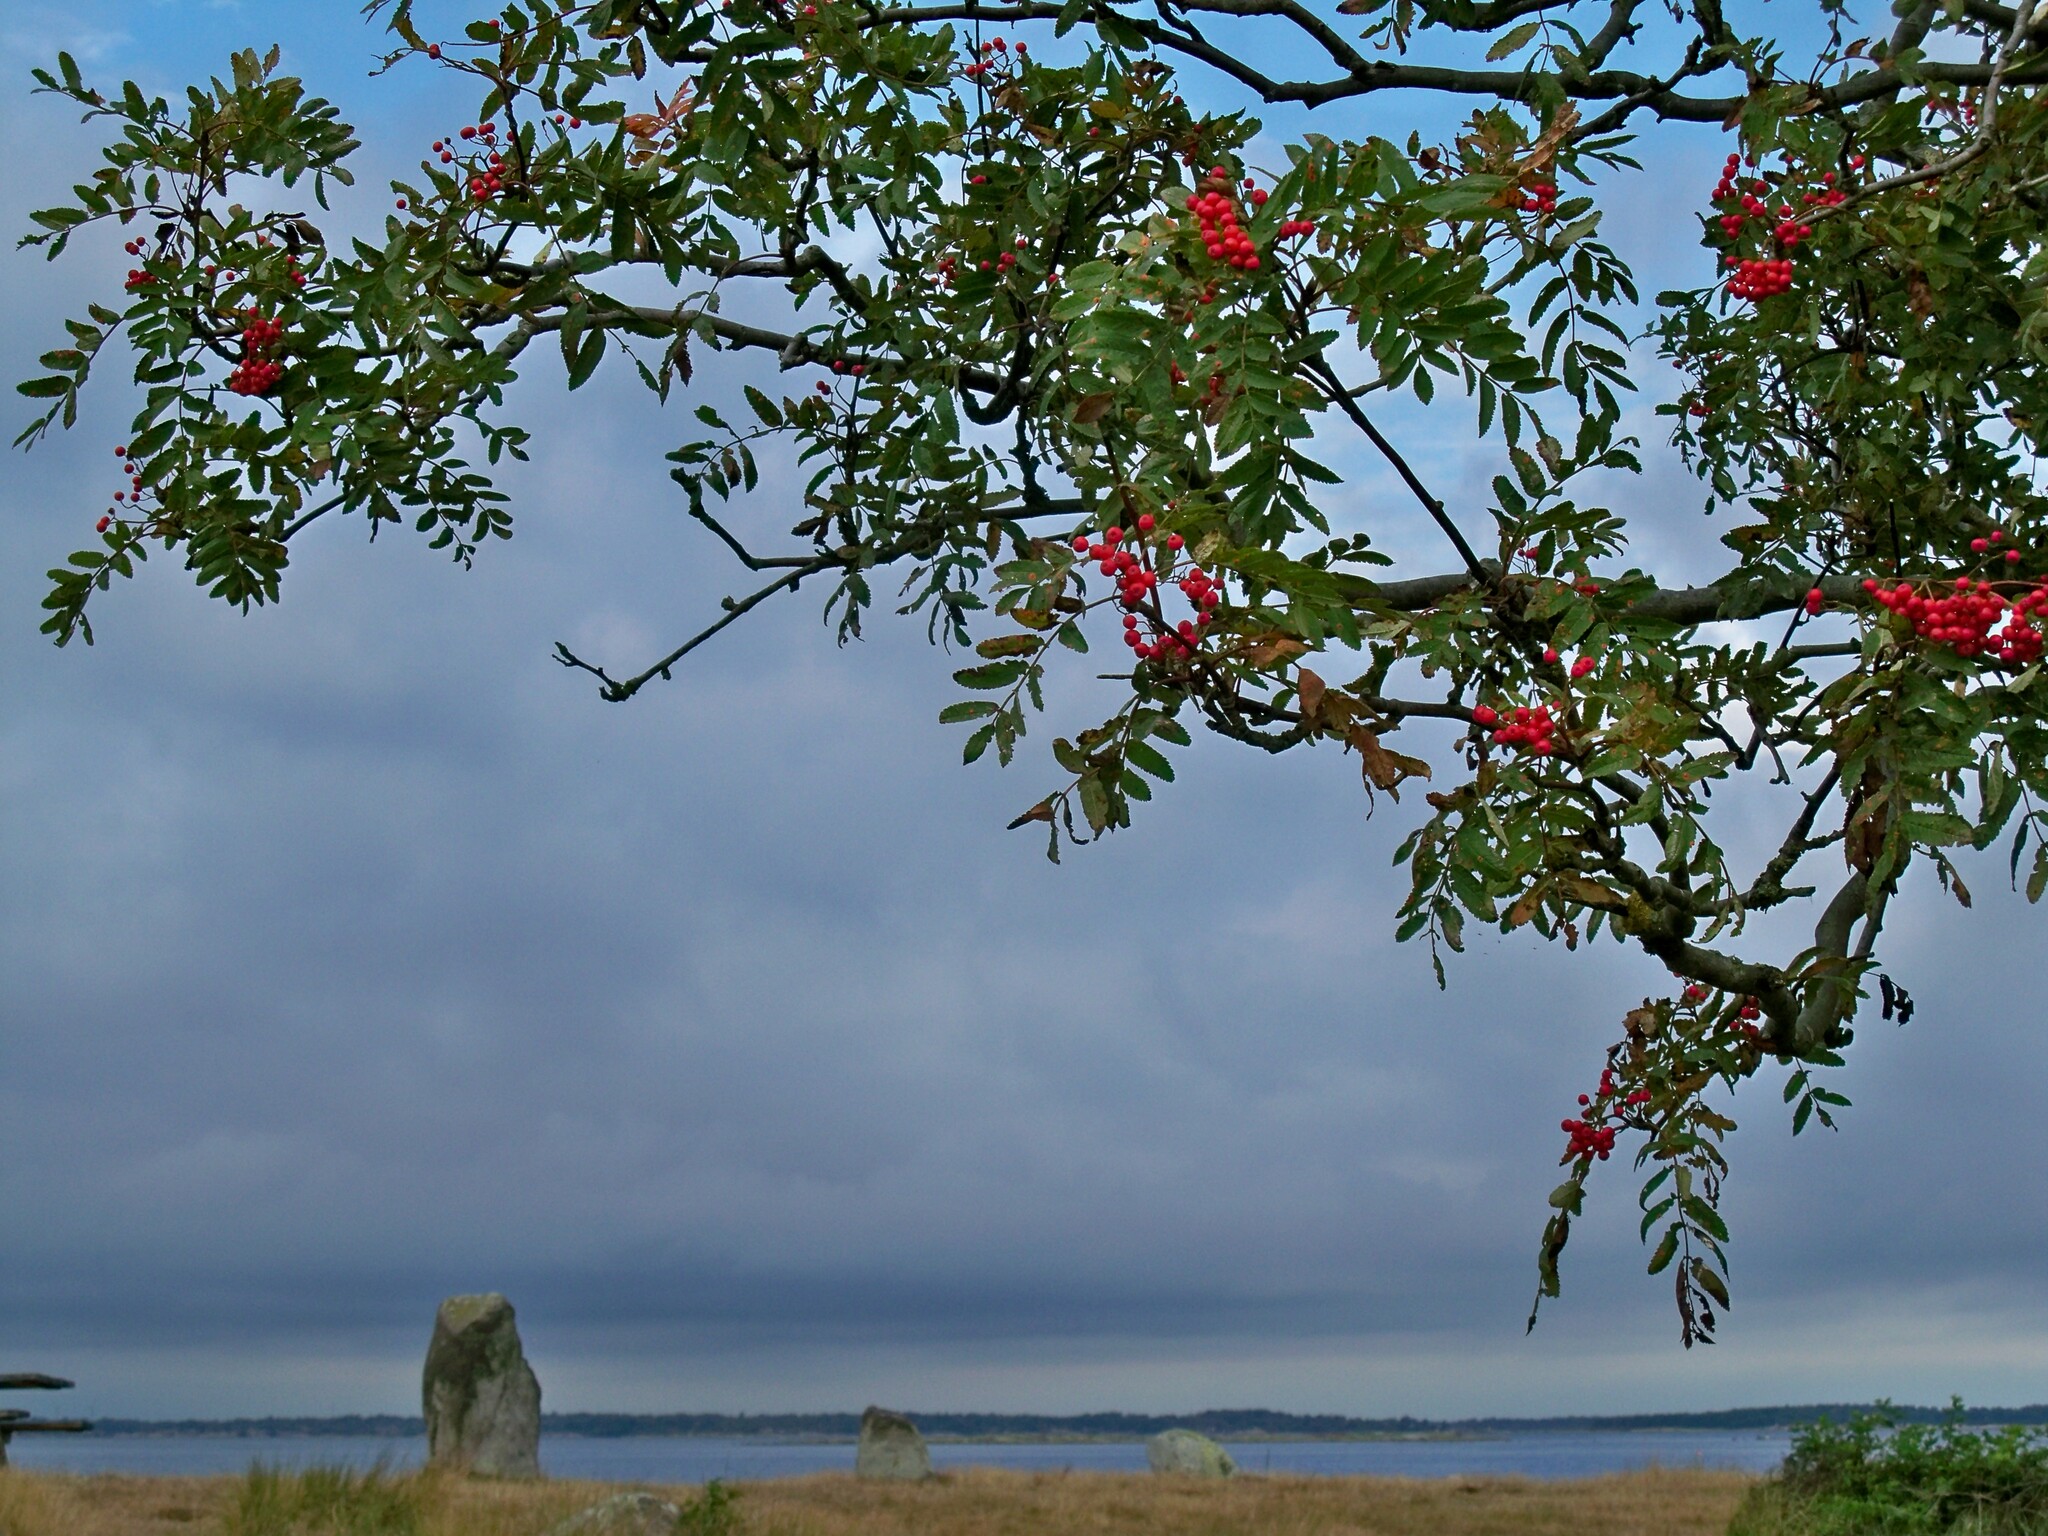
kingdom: Plantae
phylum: Tracheophyta
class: Magnoliopsida
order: Rosales
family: Rosaceae
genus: Sorbus
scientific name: Sorbus aucuparia
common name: Rowan
